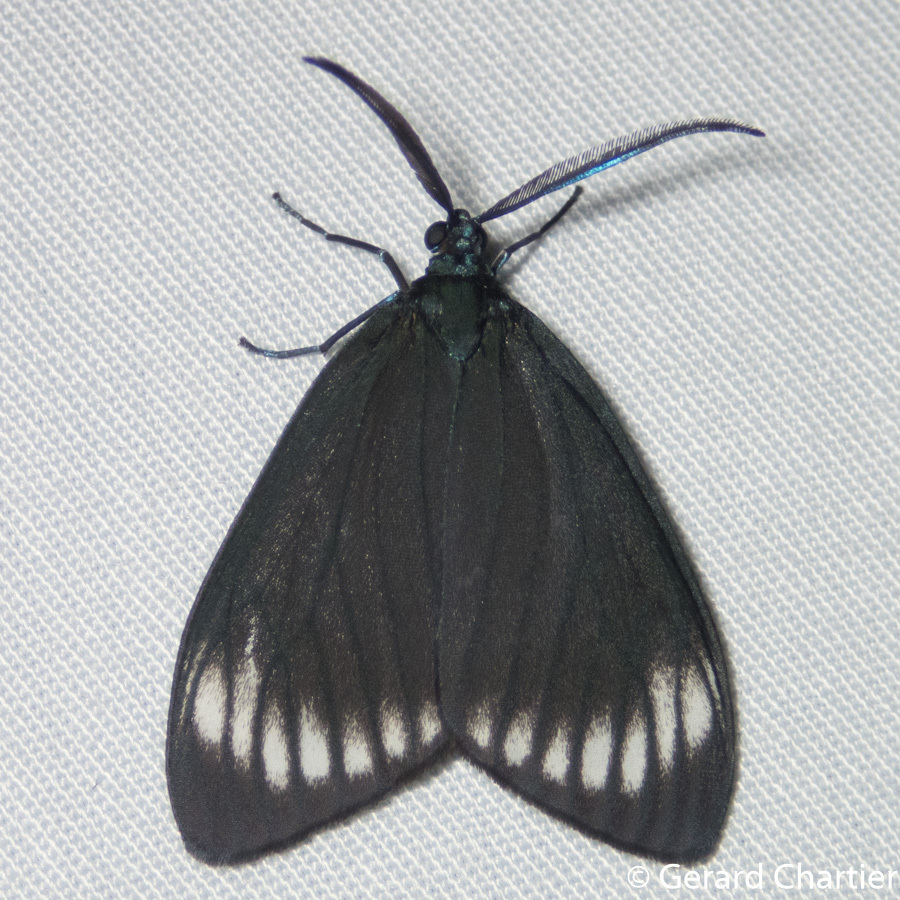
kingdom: Animalia
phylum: Arthropoda
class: Insecta
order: Lepidoptera
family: Zygaenidae
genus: Cyclosia
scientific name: Cyclosia panthona
